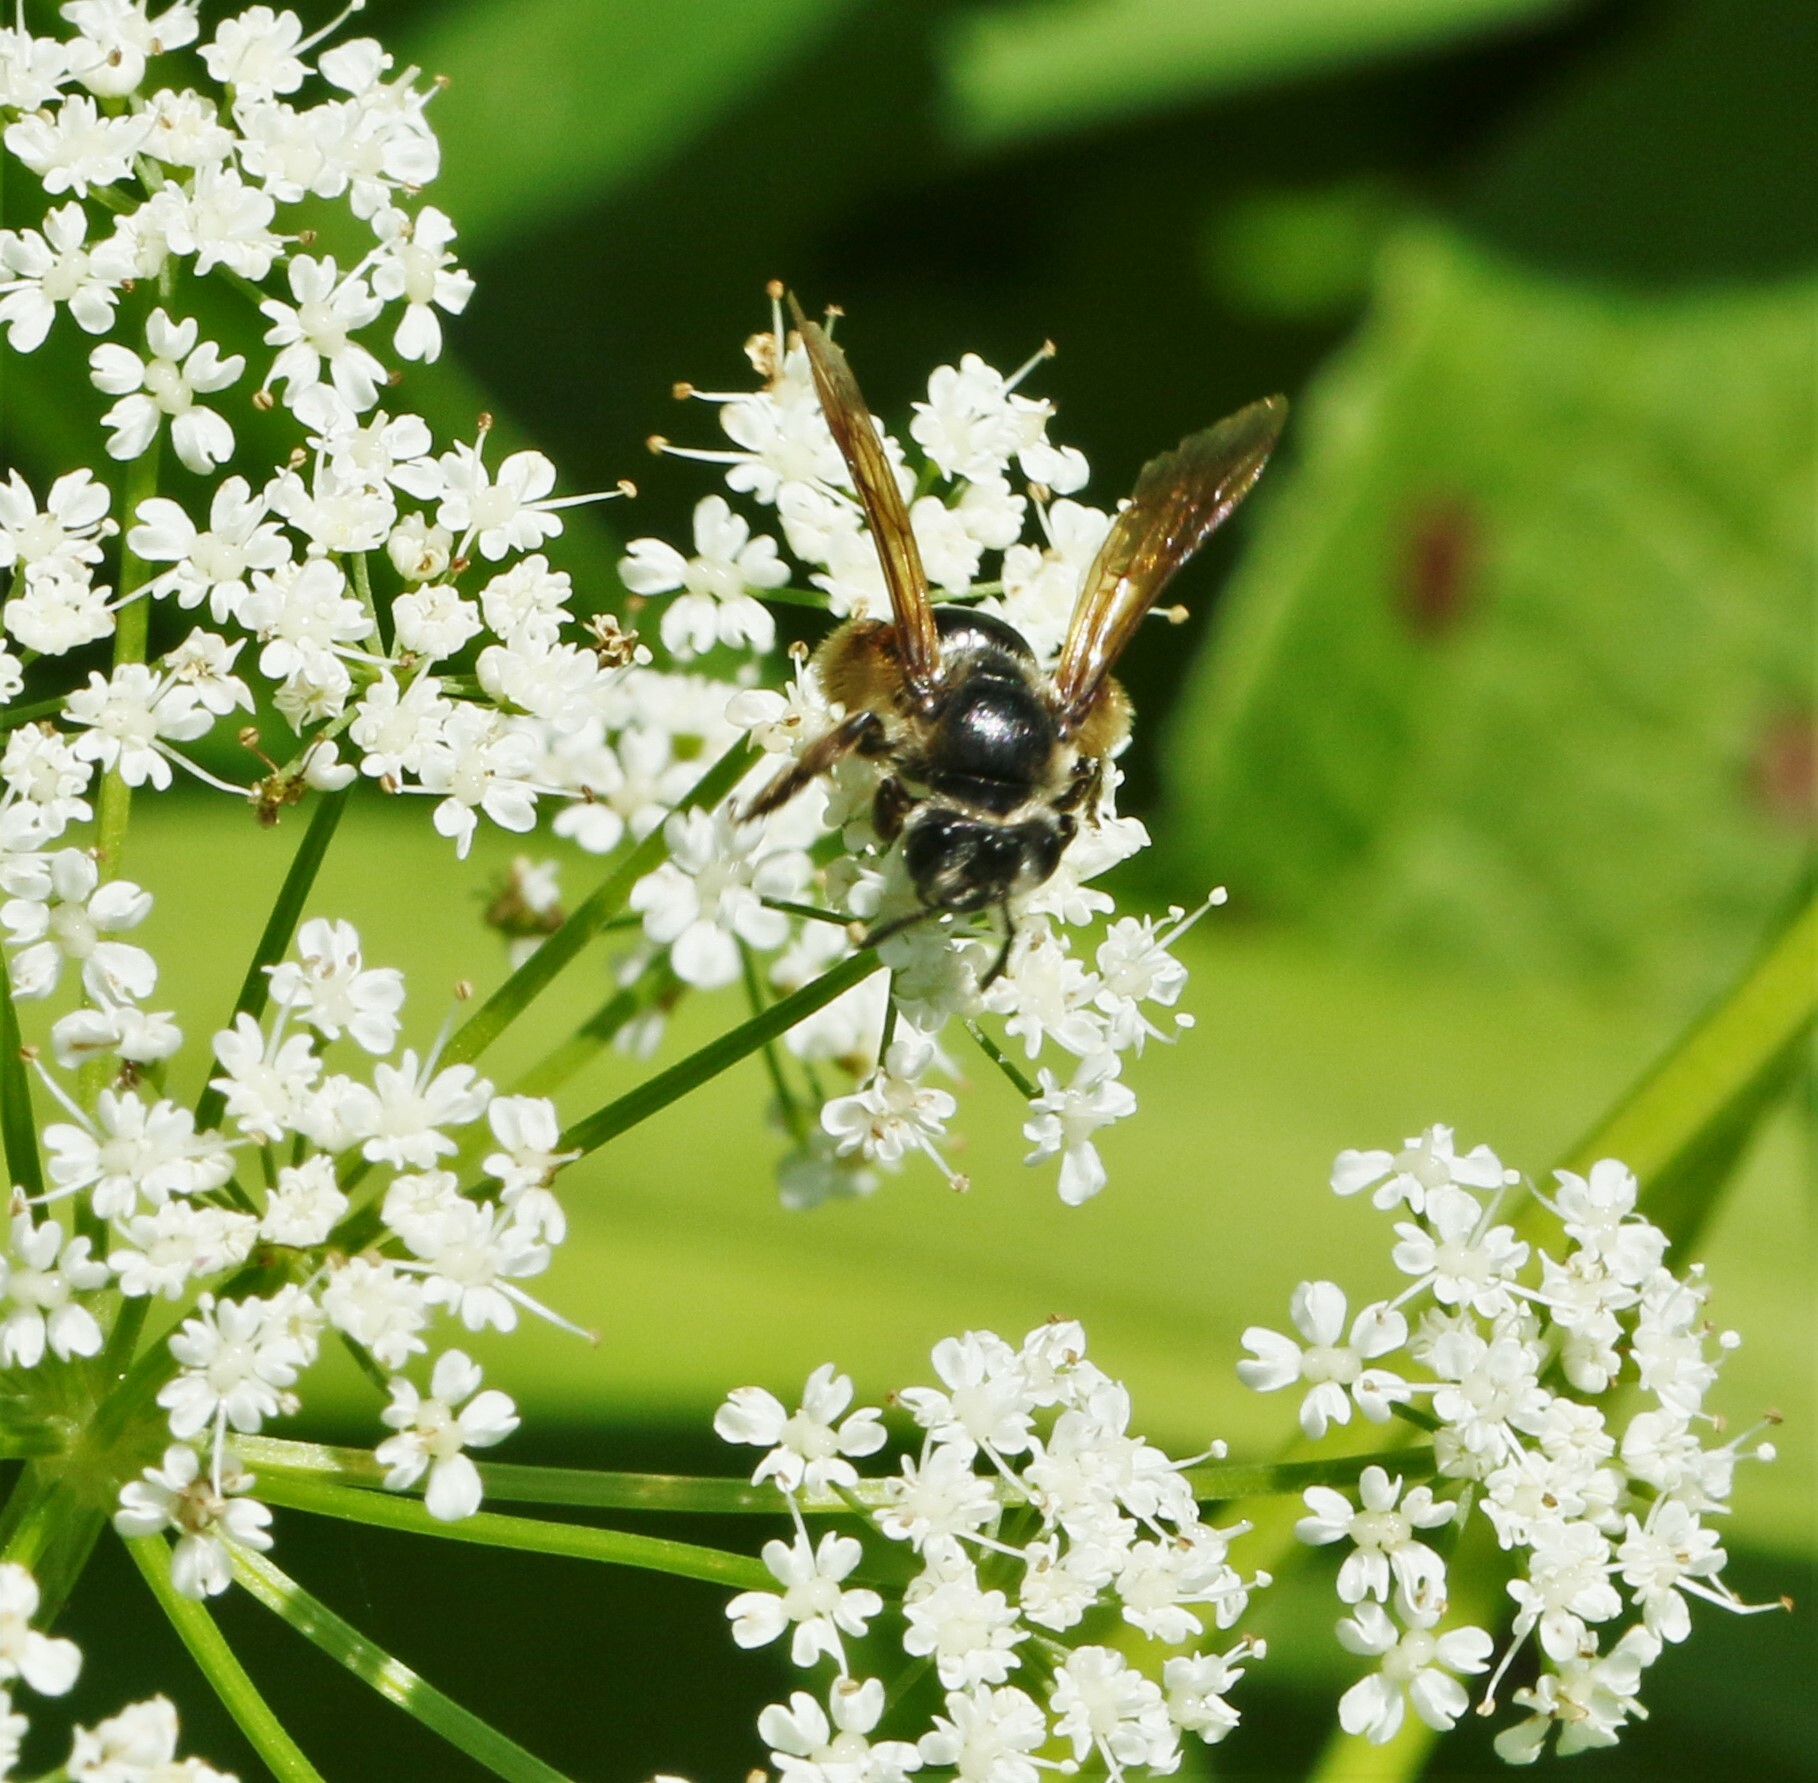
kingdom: Animalia
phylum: Arthropoda
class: Insecta
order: Hymenoptera
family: Andrenidae
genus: Andrena
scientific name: Andrena crataegi
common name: Hawthorn mining bee
